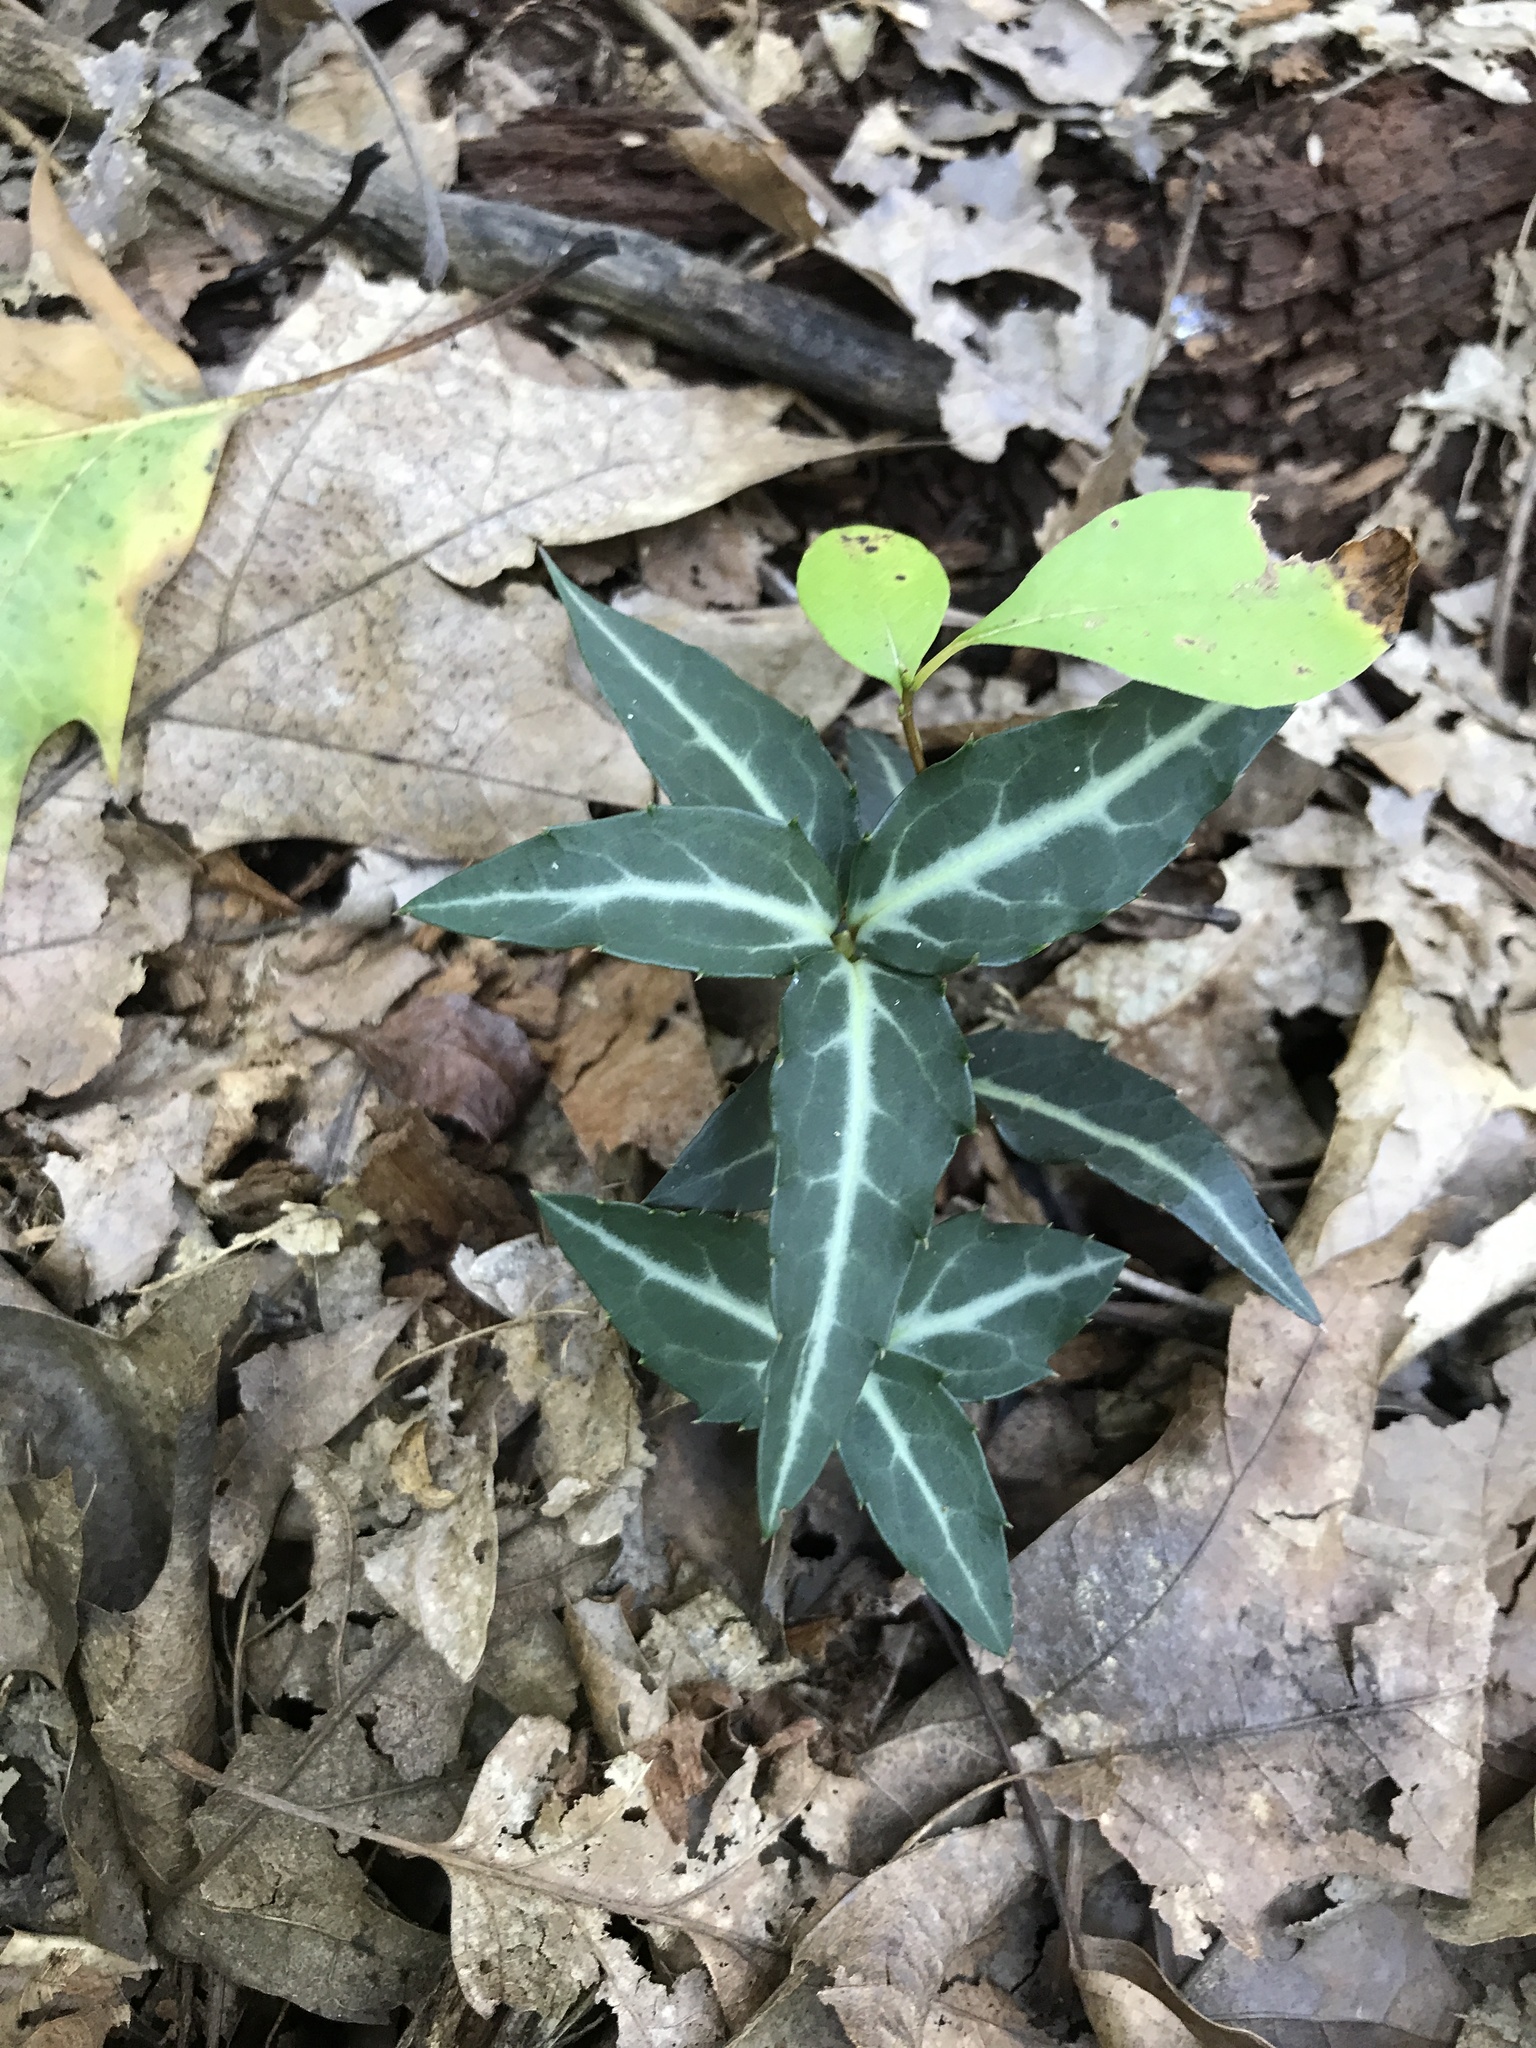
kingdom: Plantae
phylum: Tracheophyta
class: Magnoliopsida
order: Ericales
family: Ericaceae
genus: Chimaphila
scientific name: Chimaphila maculata
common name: Spotted pipsissewa
